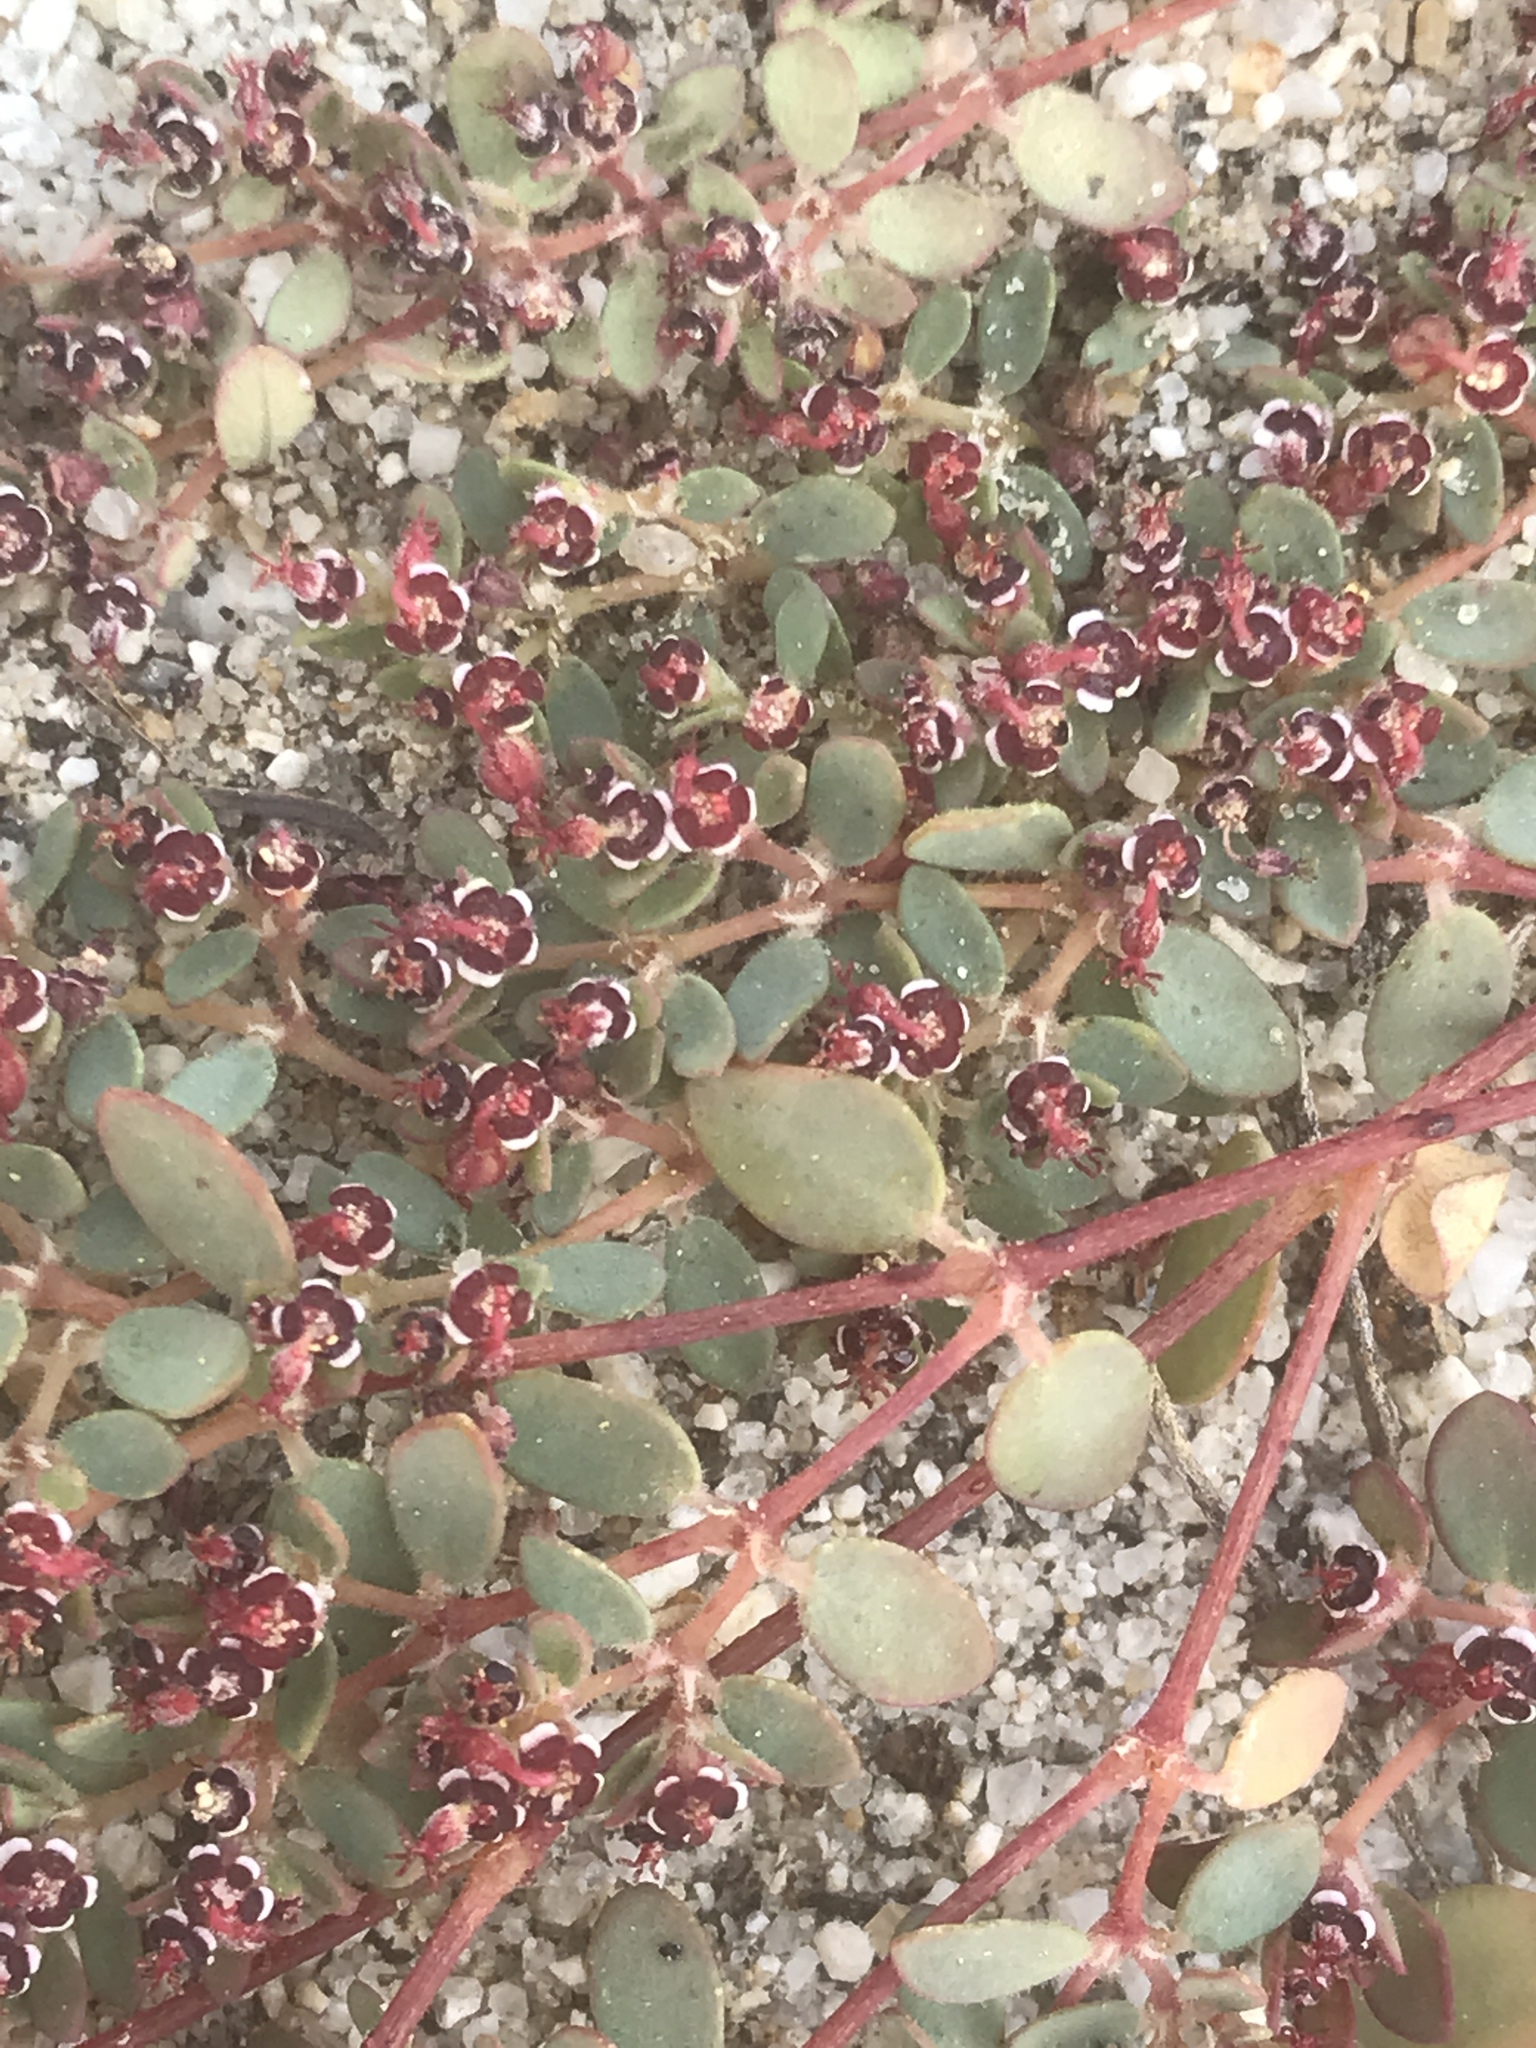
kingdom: Plantae
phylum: Tracheophyta
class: Magnoliopsida
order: Malpighiales
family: Euphorbiaceae
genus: Euphorbia
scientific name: Euphorbia polycarpa
